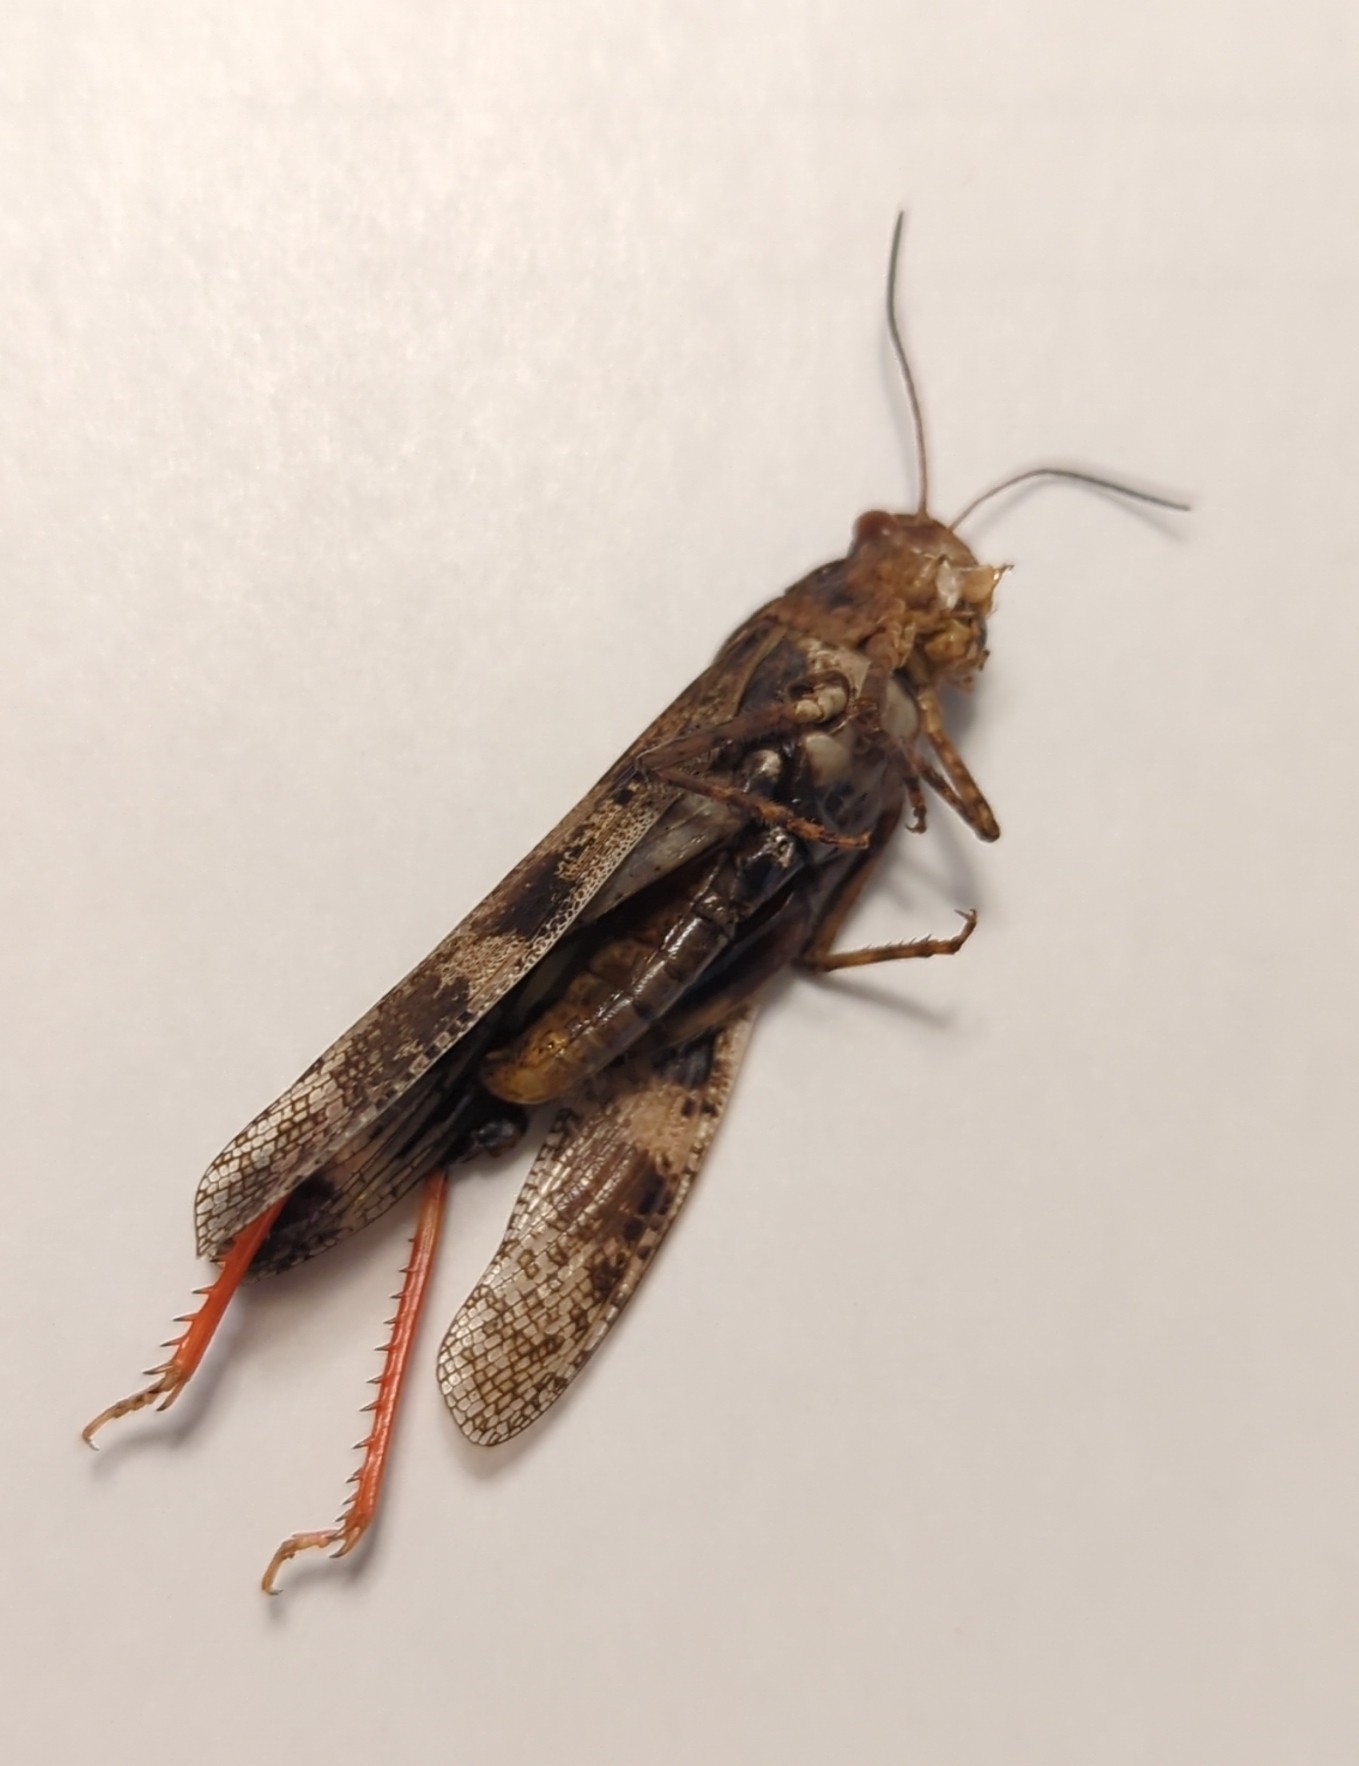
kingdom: Animalia
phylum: Arthropoda
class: Insecta
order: Orthoptera
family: Acrididae
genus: Spharagemon
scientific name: Spharagemon cristatum
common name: Ridgeback sand grasshopper
